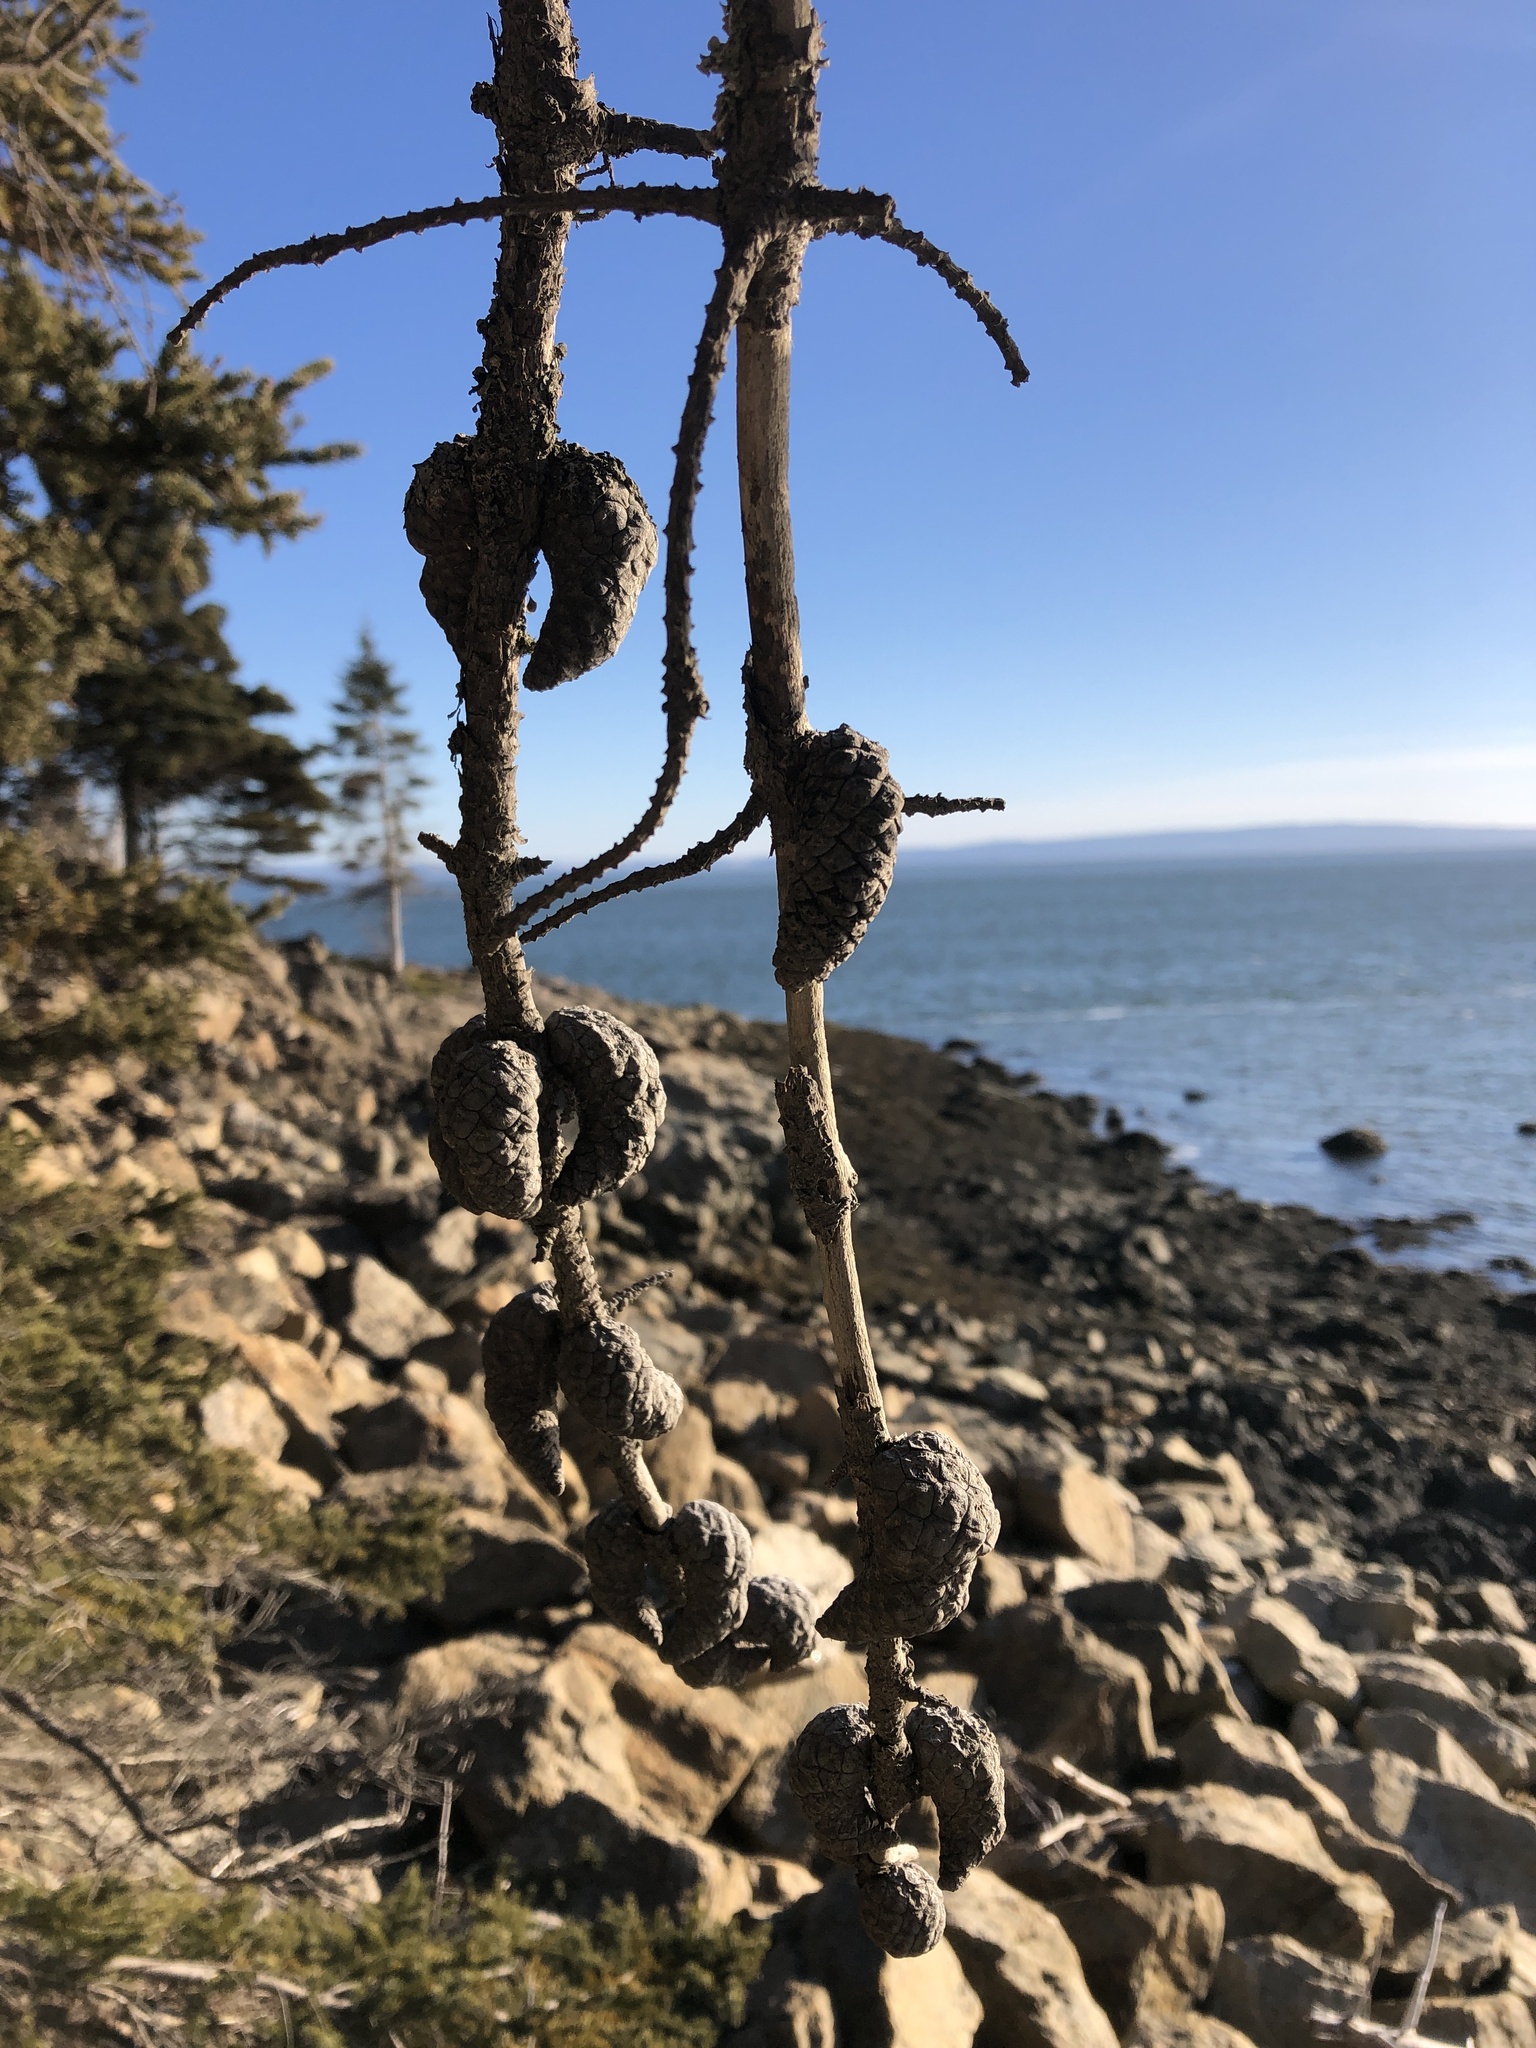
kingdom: Plantae
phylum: Tracheophyta
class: Pinopsida
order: Pinales
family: Pinaceae
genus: Pinus
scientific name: Pinus banksiana
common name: Jack pine
